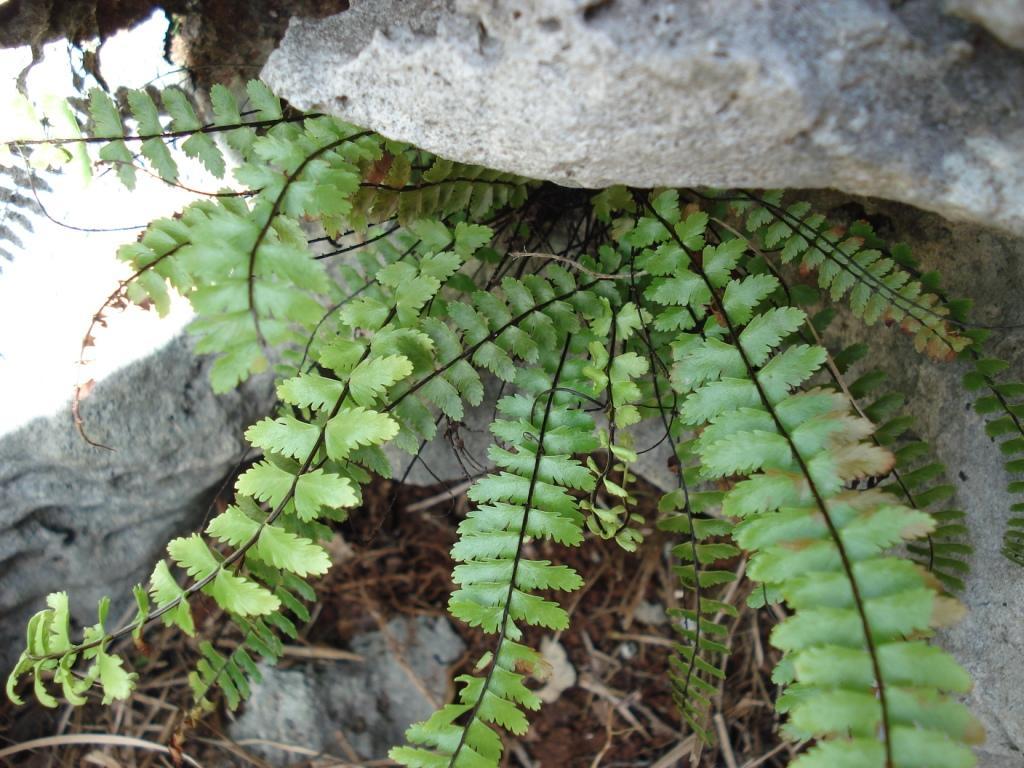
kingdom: Plantae
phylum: Tracheophyta
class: Polypodiopsida
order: Polypodiales
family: Aspleniaceae
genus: Asplenium
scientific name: Asplenium heterochroum
